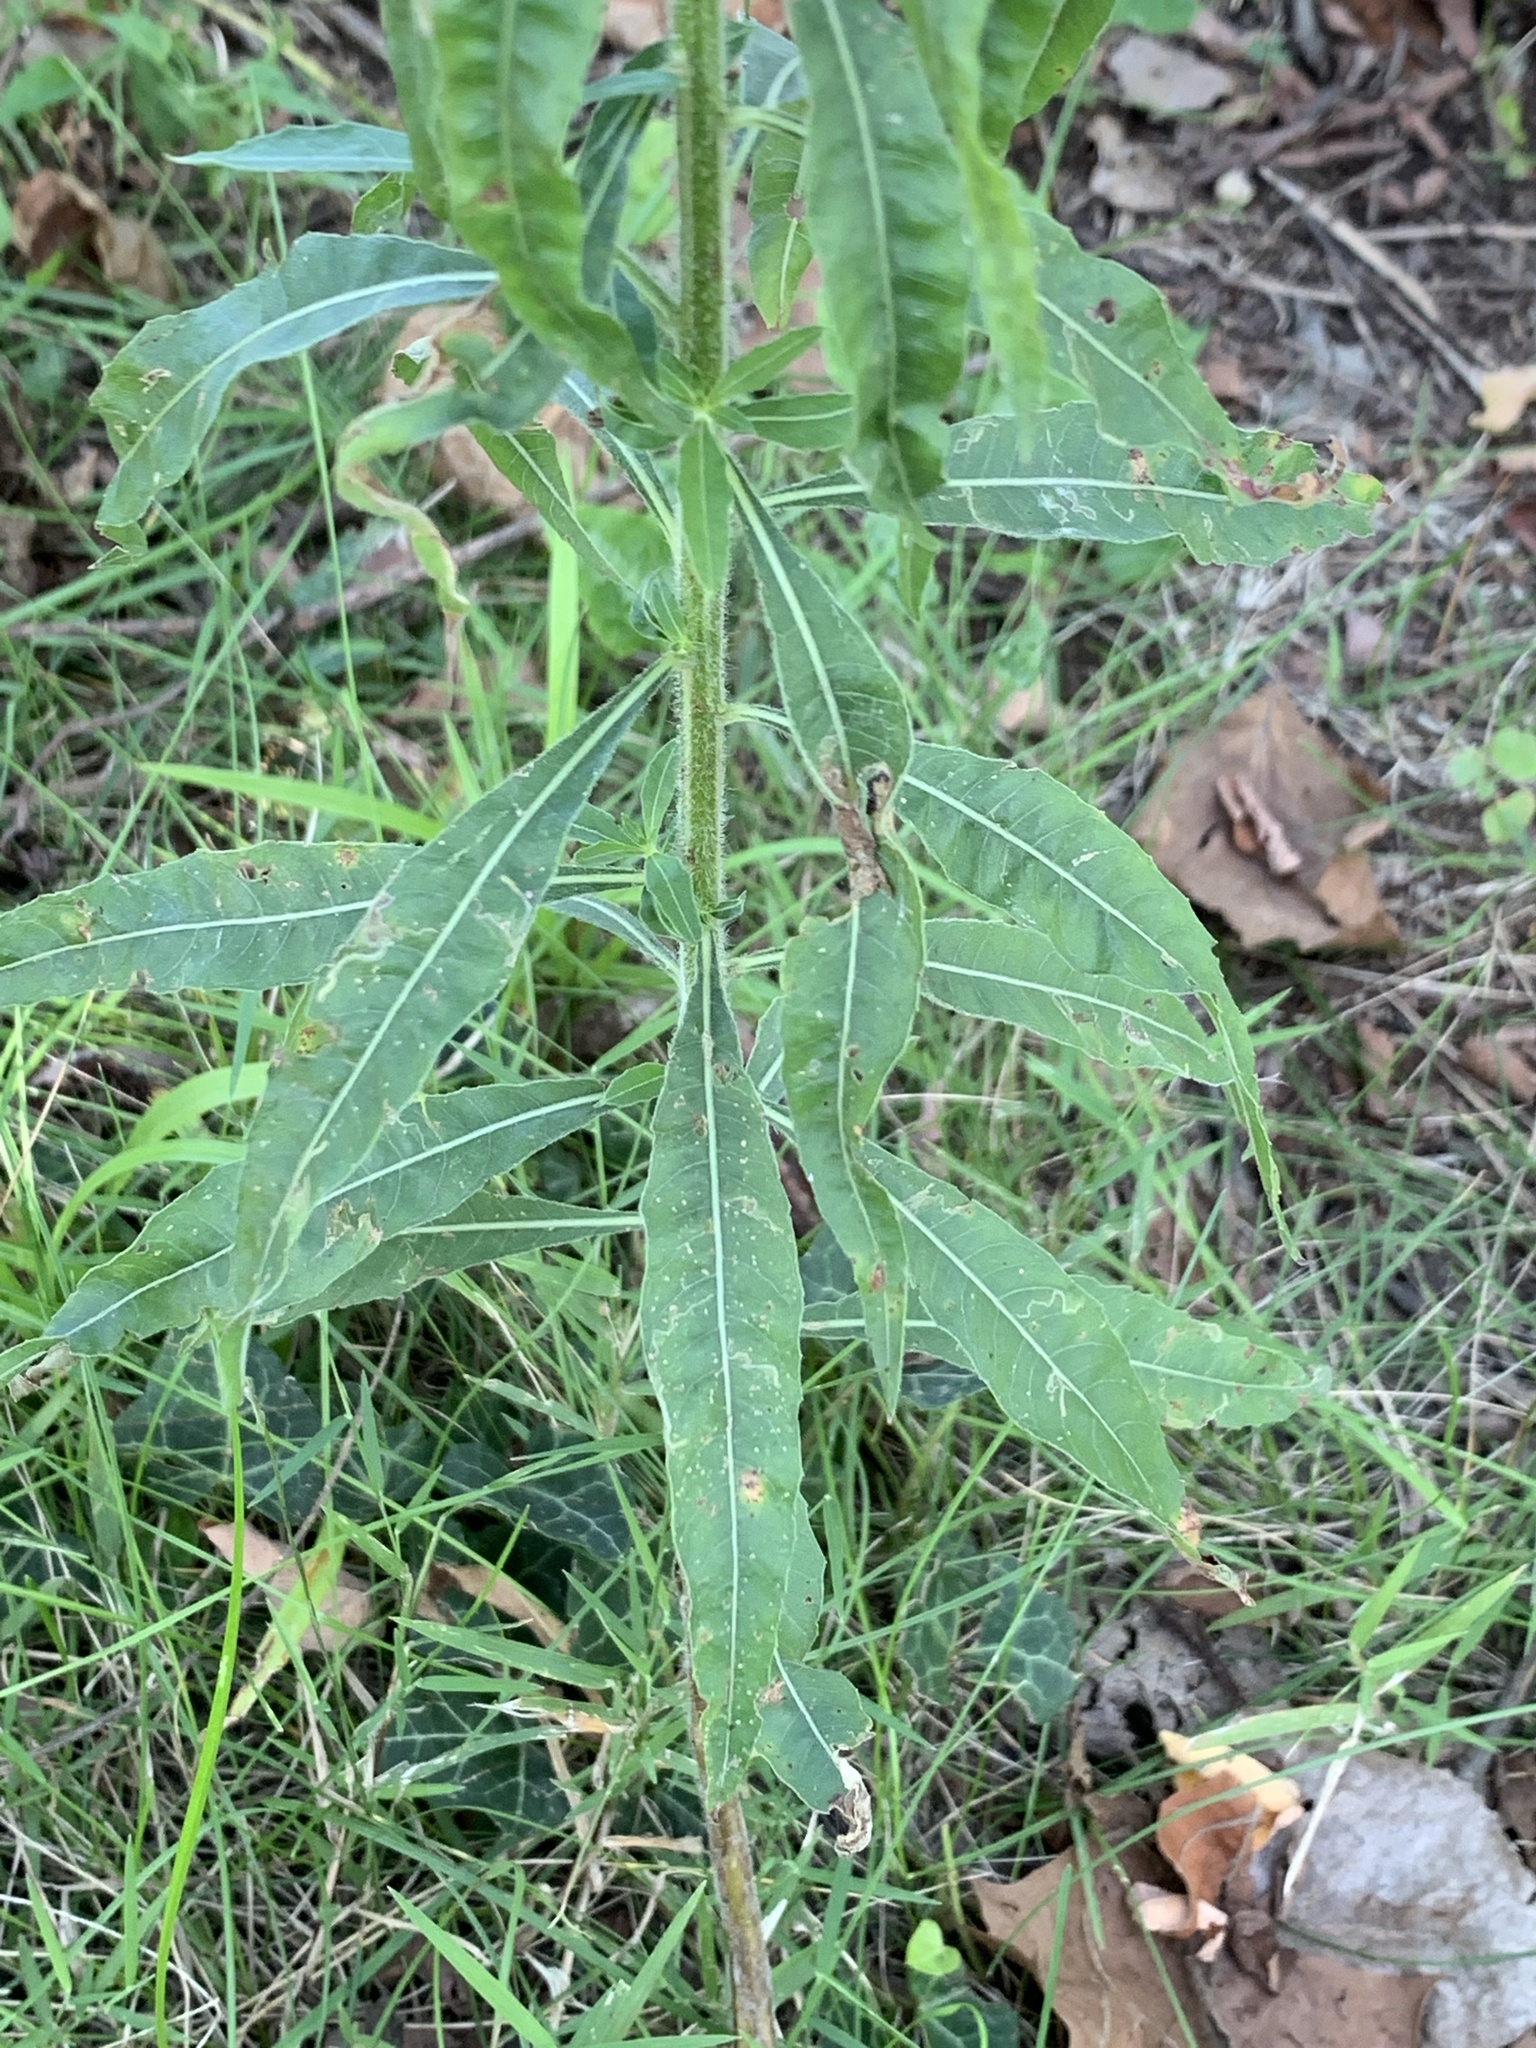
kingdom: Plantae
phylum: Tracheophyta
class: Magnoliopsida
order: Myrtales
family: Onagraceae
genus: Oenothera
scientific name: Oenothera gaura
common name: Biennial beeblossom
